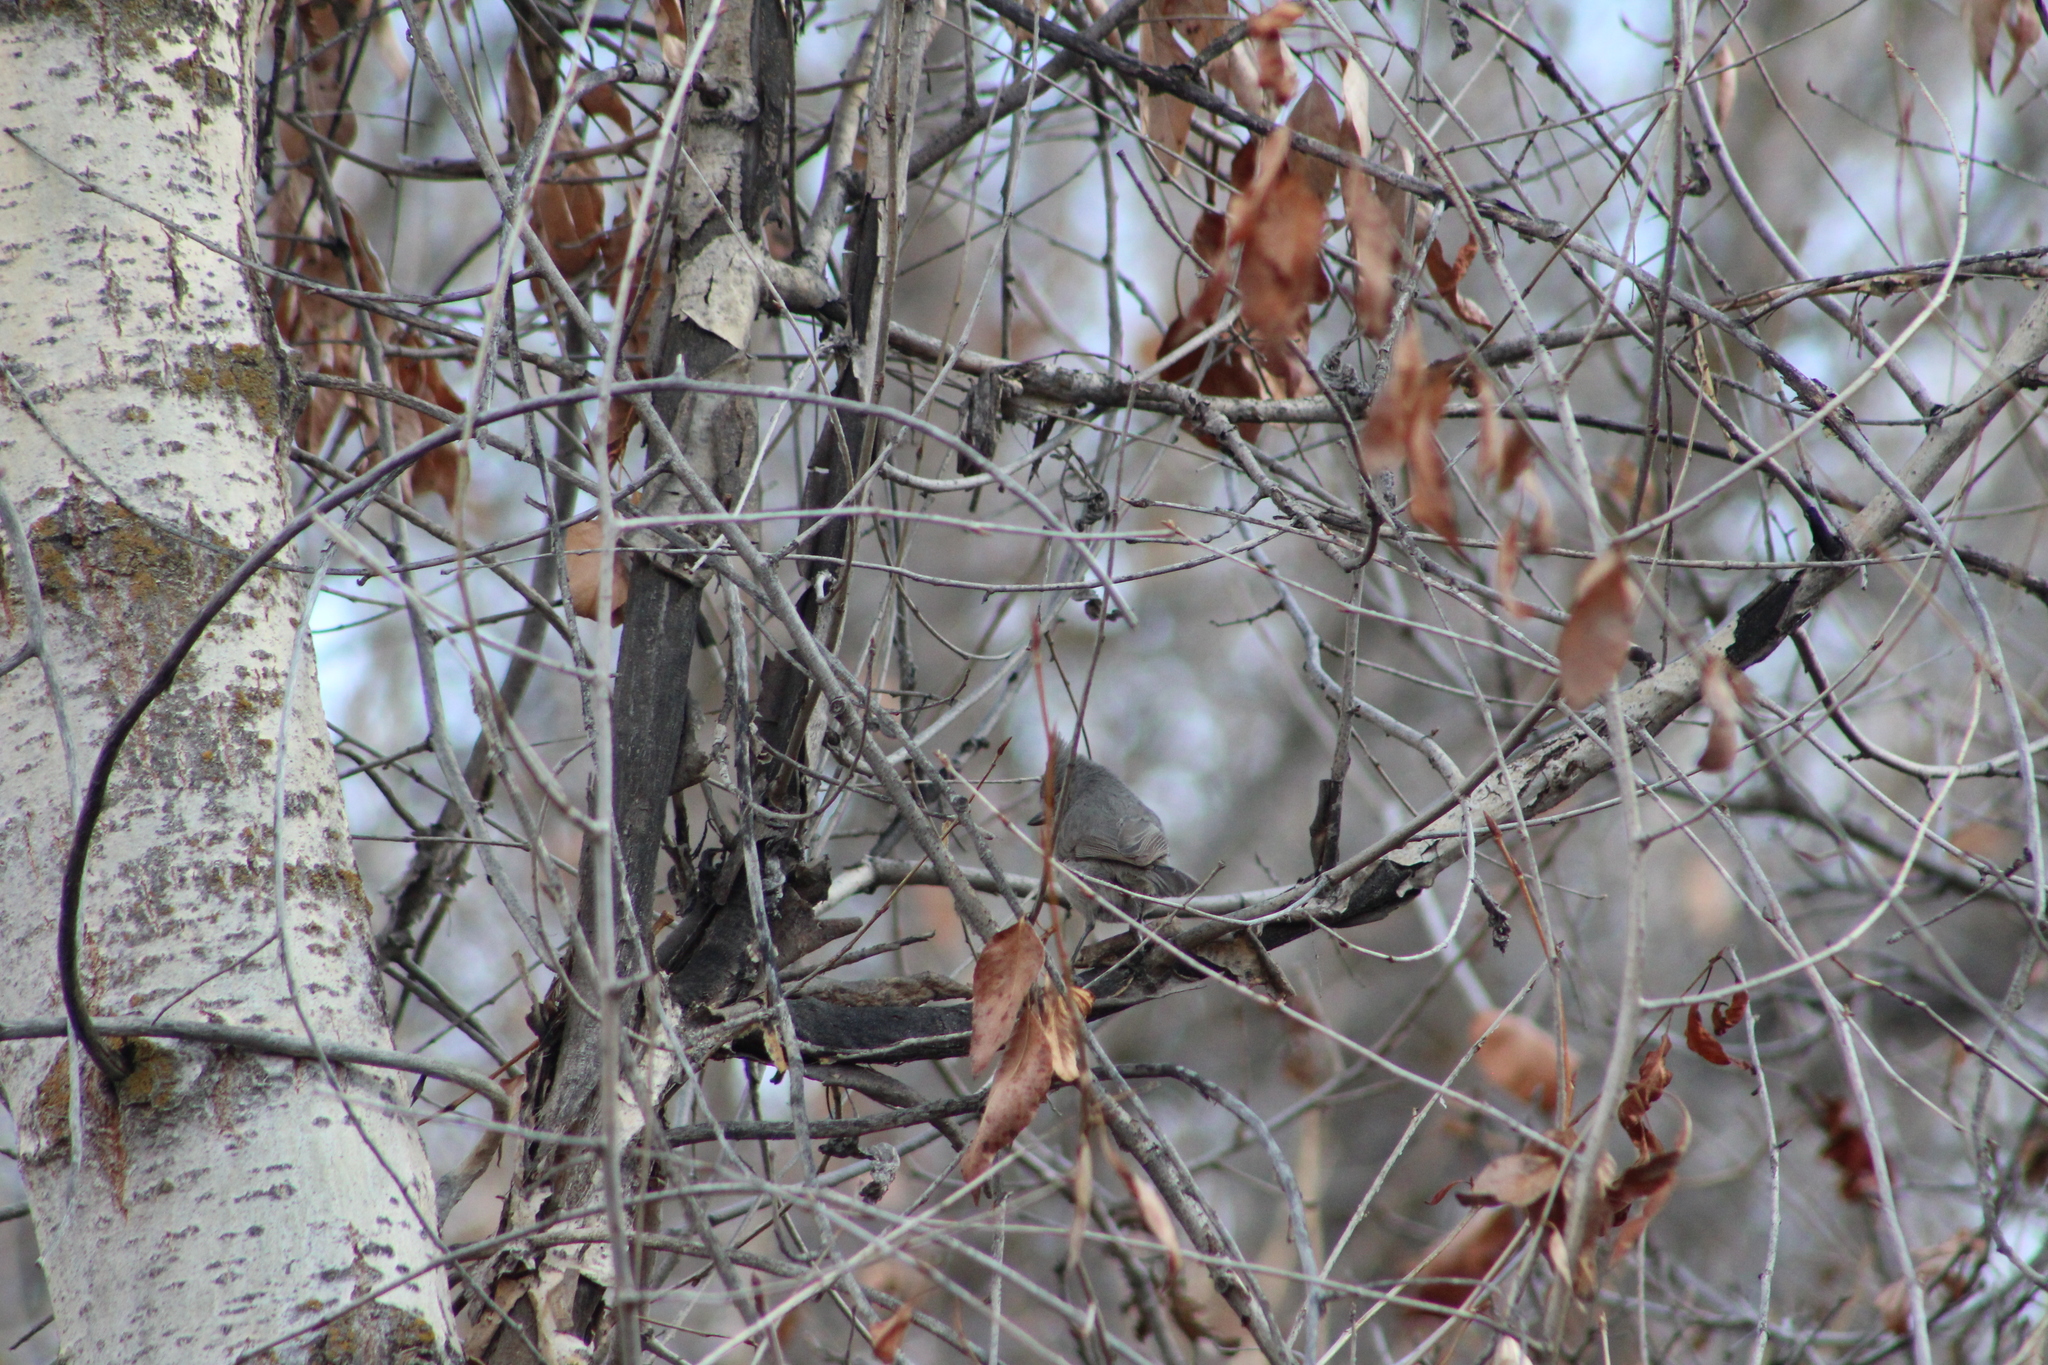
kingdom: Animalia
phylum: Chordata
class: Aves
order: Passeriformes
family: Paridae
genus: Baeolophus
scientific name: Baeolophus ridgwayi
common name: Juniper titmouse
